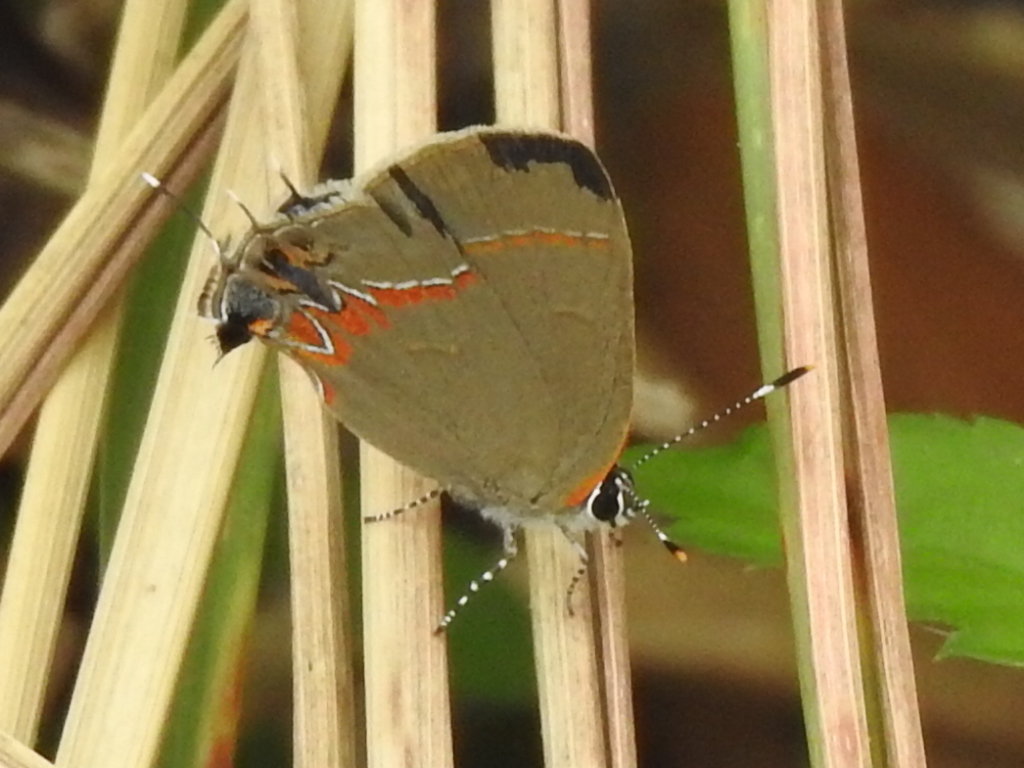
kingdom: Animalia
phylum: Arthropoda
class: Insecta
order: Lepidoptera
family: Lycaenidae
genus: Calycopis
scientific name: Calycopis isobeon
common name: Dusky-blue groundstreak
